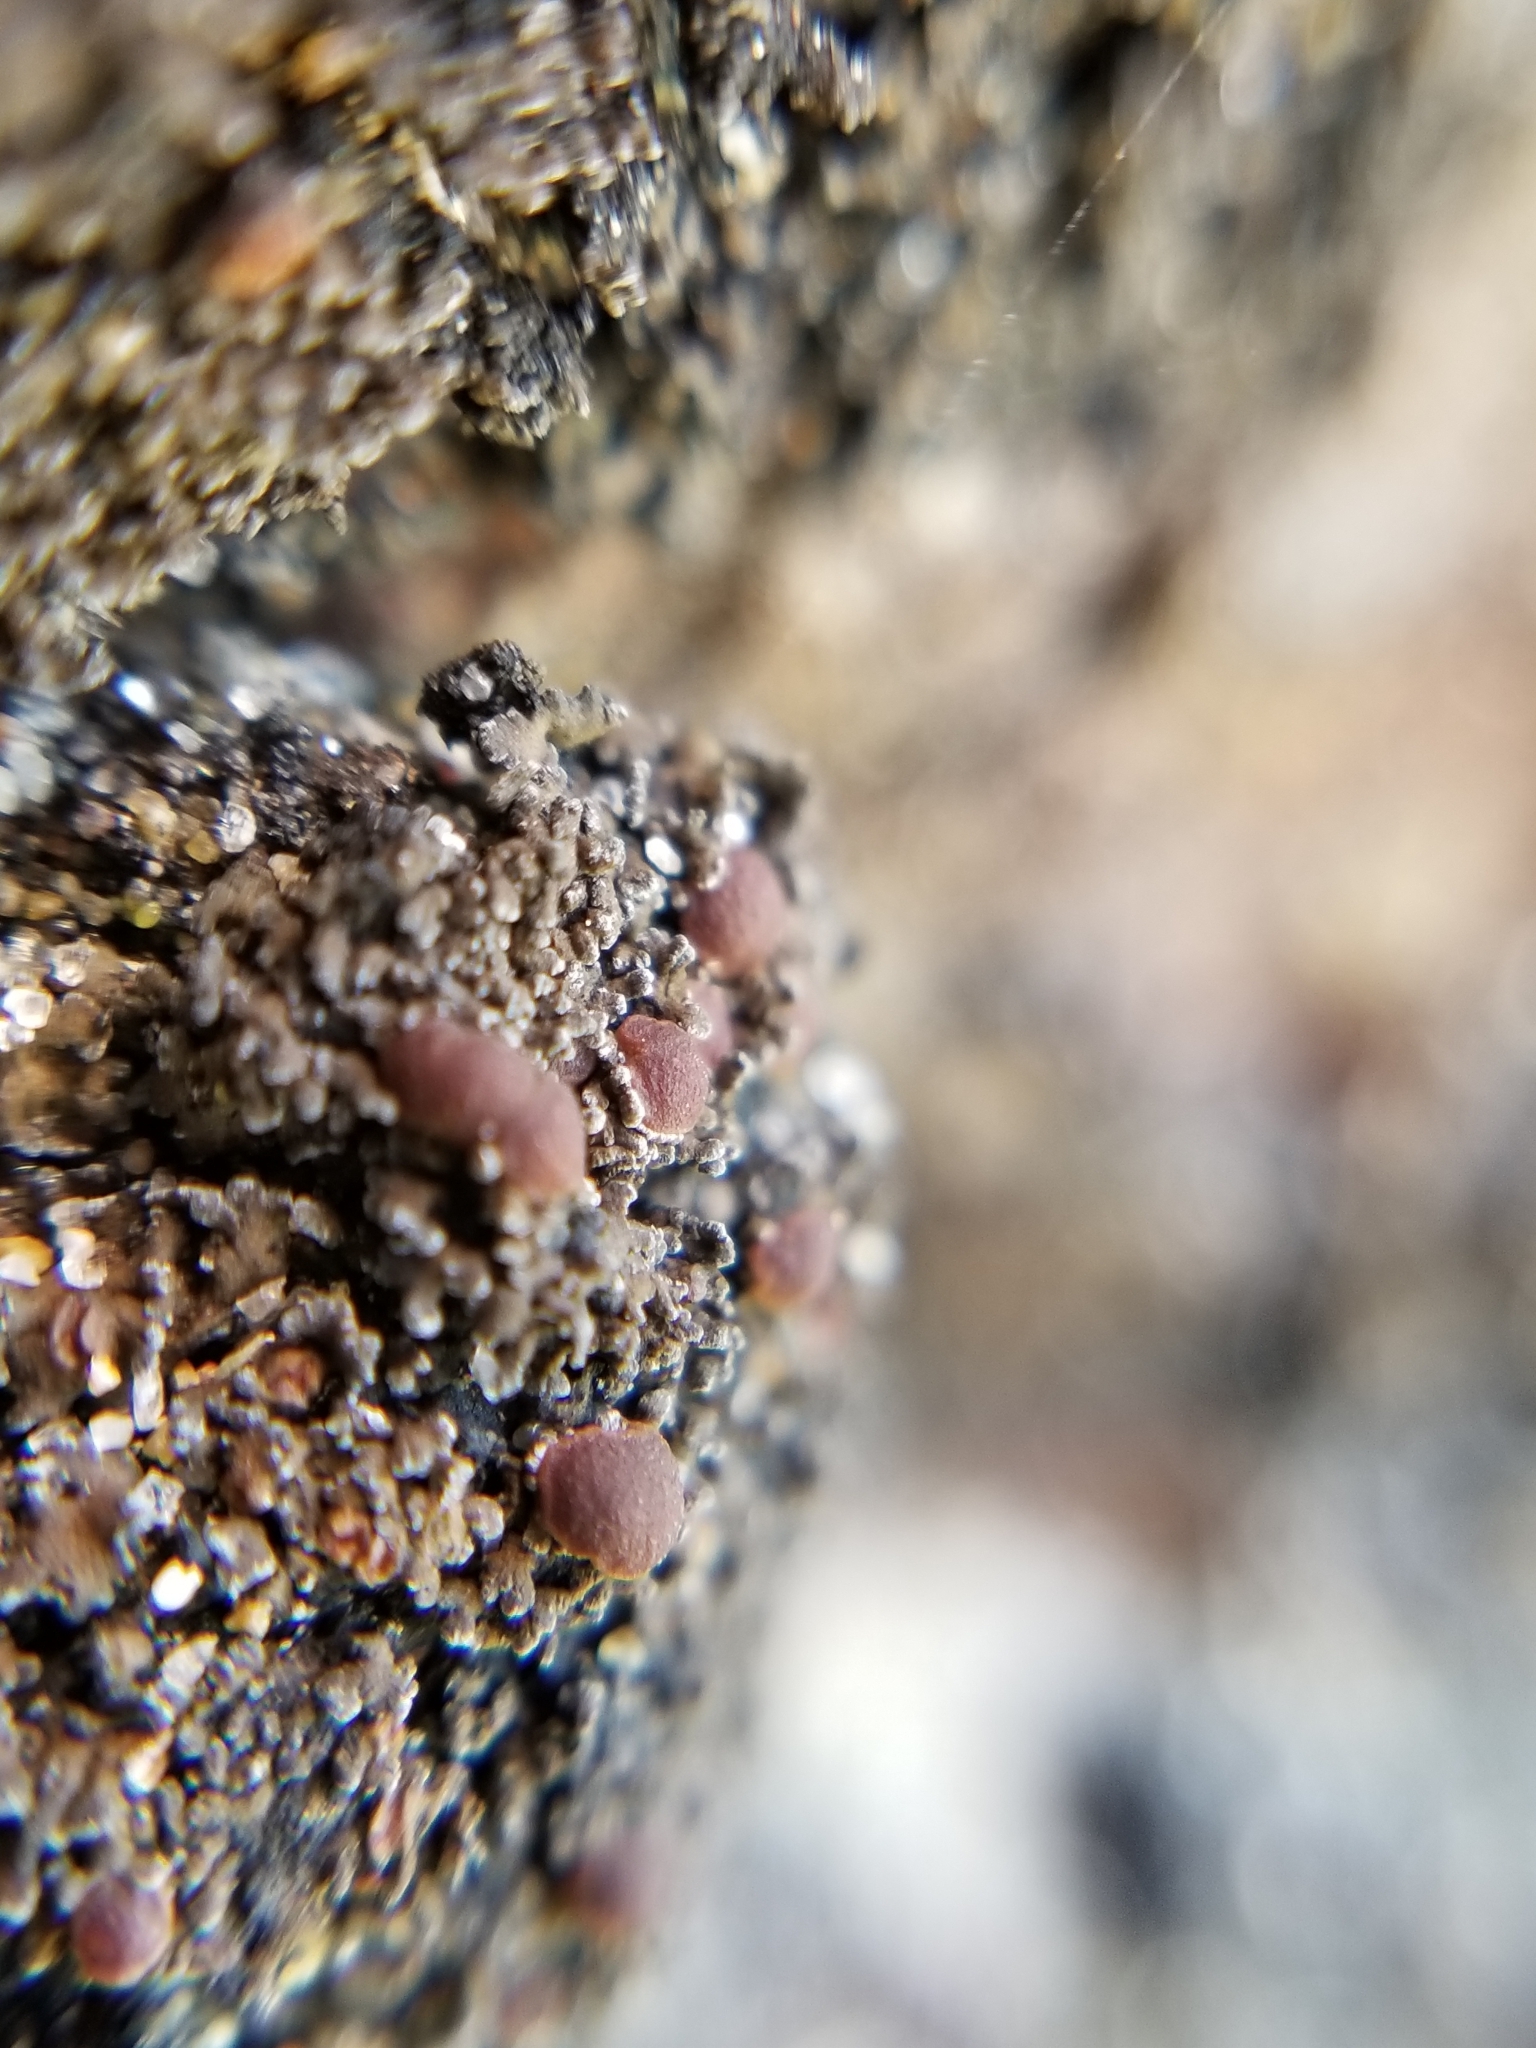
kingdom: Fungi
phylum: Ascomycota
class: Lecanoromycetes
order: Peltigerales
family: Pannariaceae
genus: Fuscopannaria
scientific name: Fuscopannaria maritima
